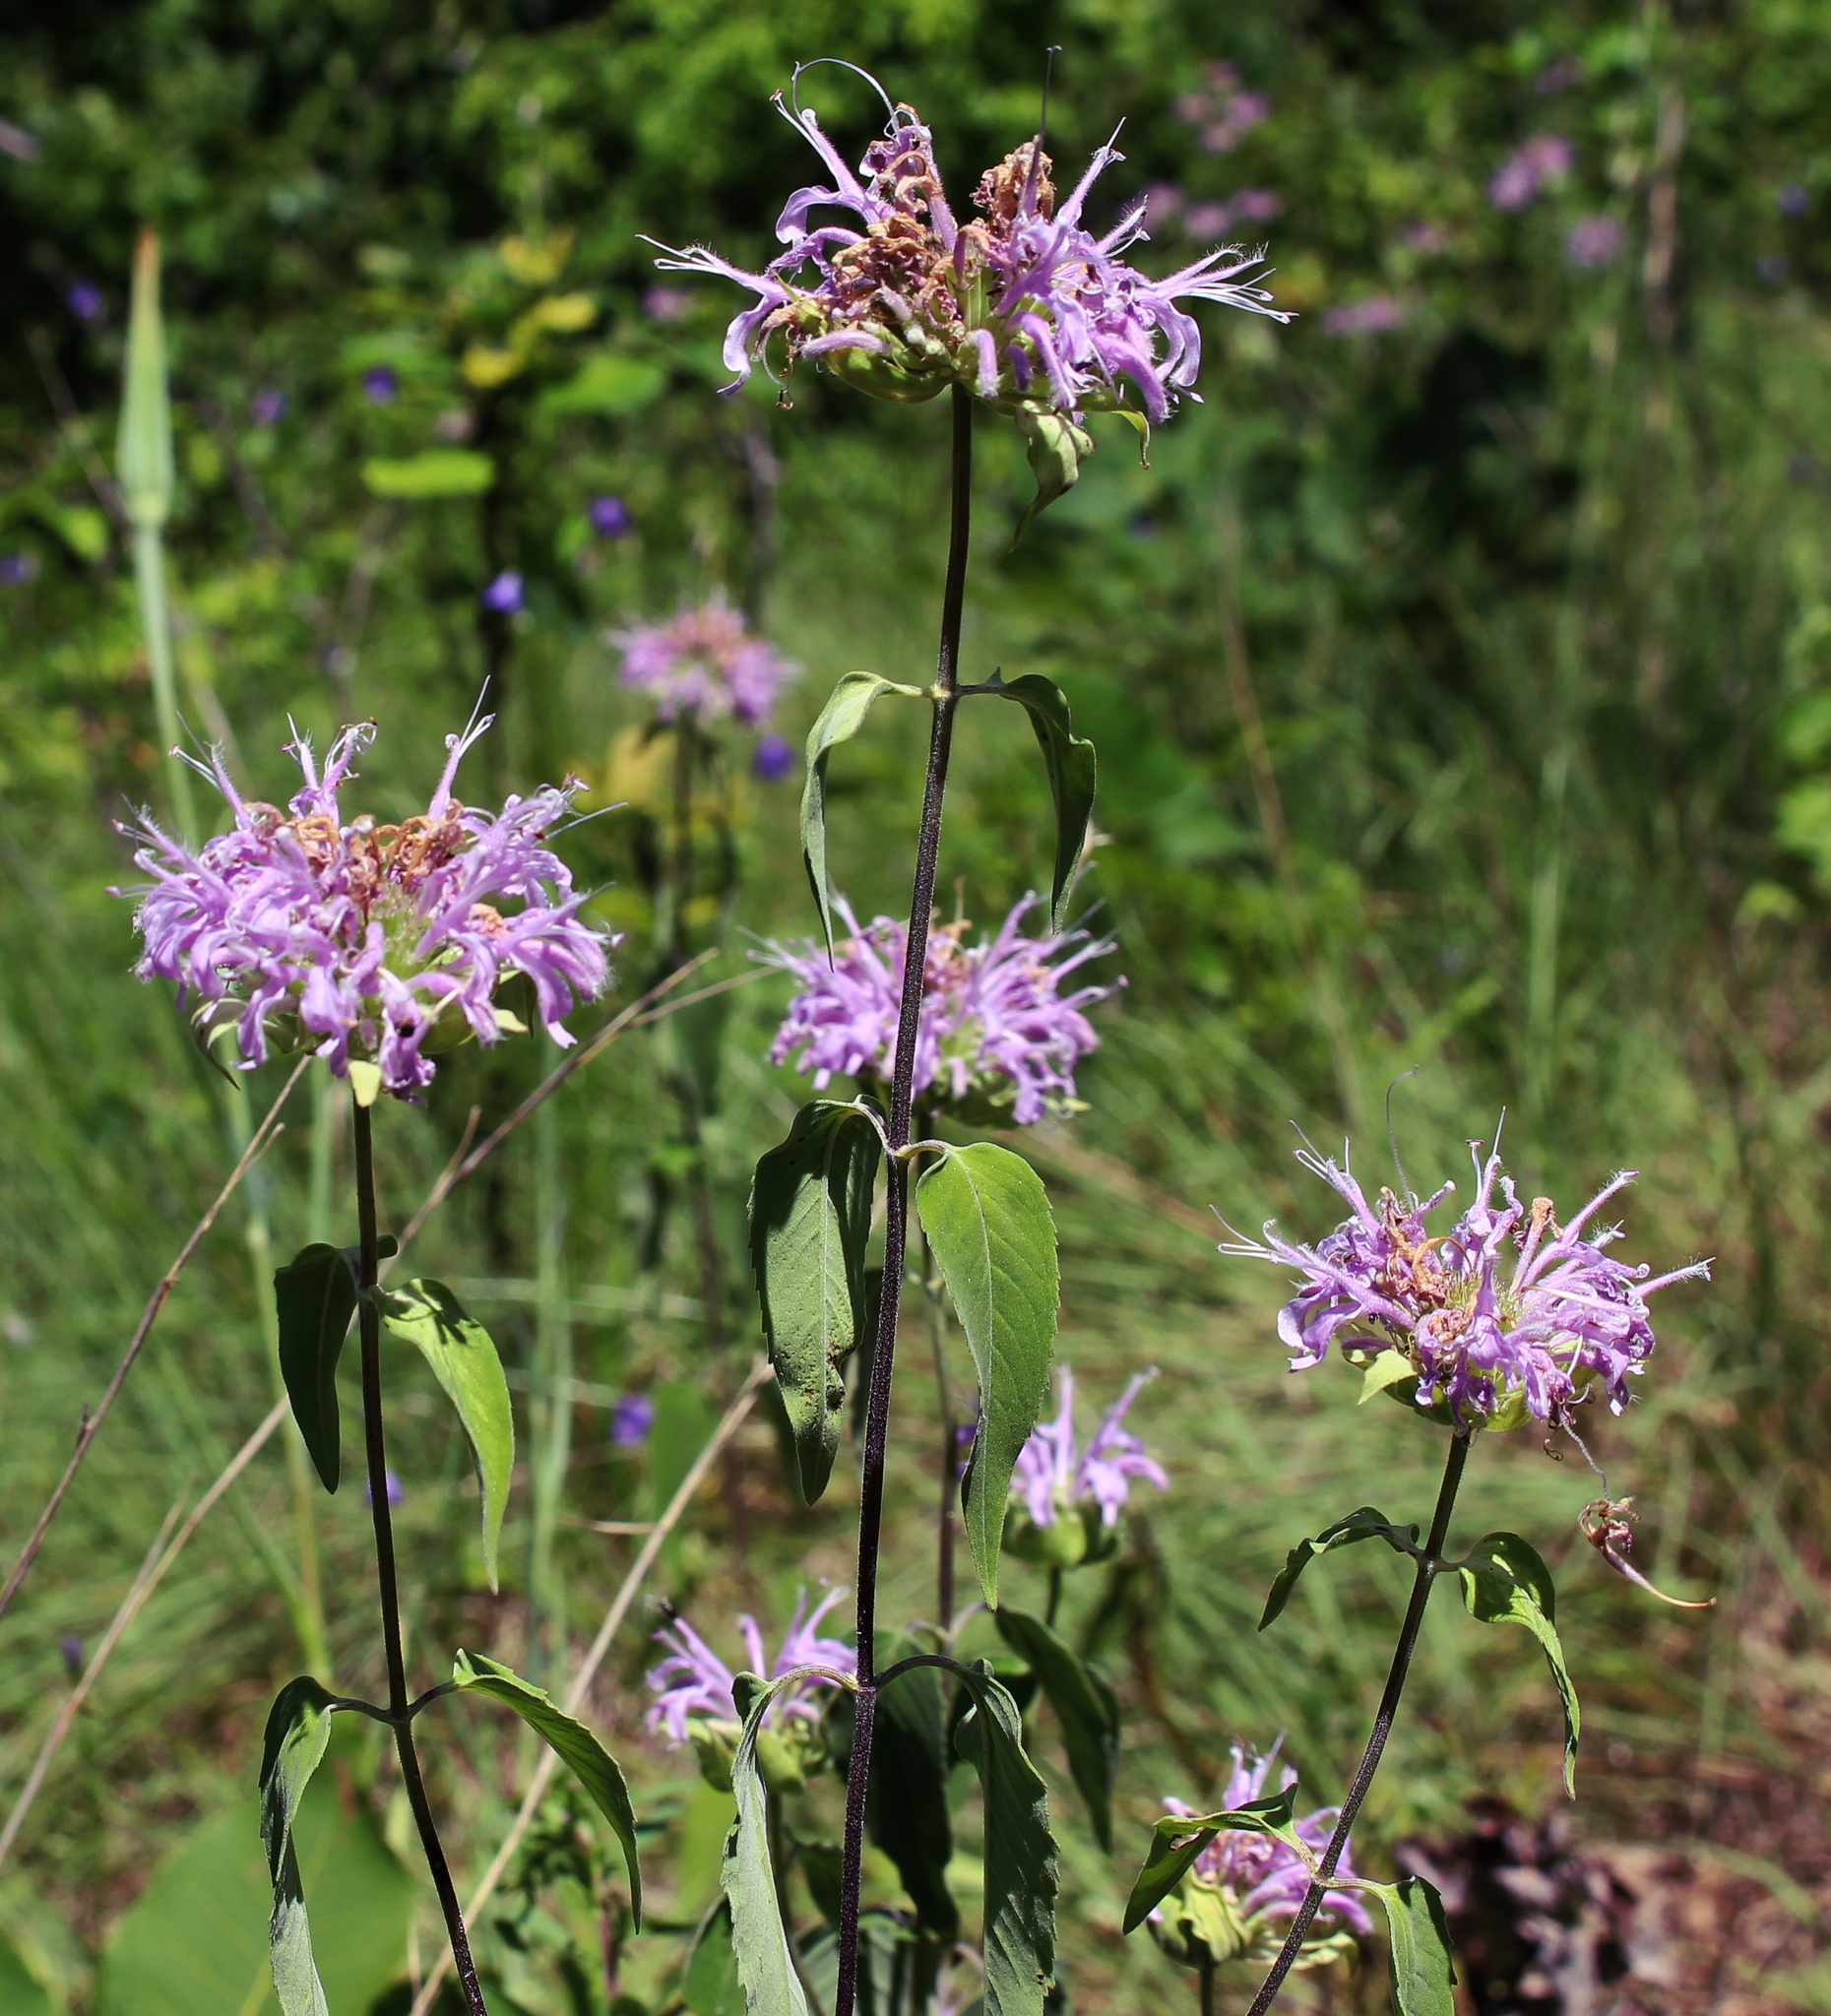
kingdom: Plantae
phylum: Tracheophyta
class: Magnoliopsida
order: Lamiales
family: Lamiaceae
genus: Monarda
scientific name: Monarda fistulosa
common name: Purple beebalm
